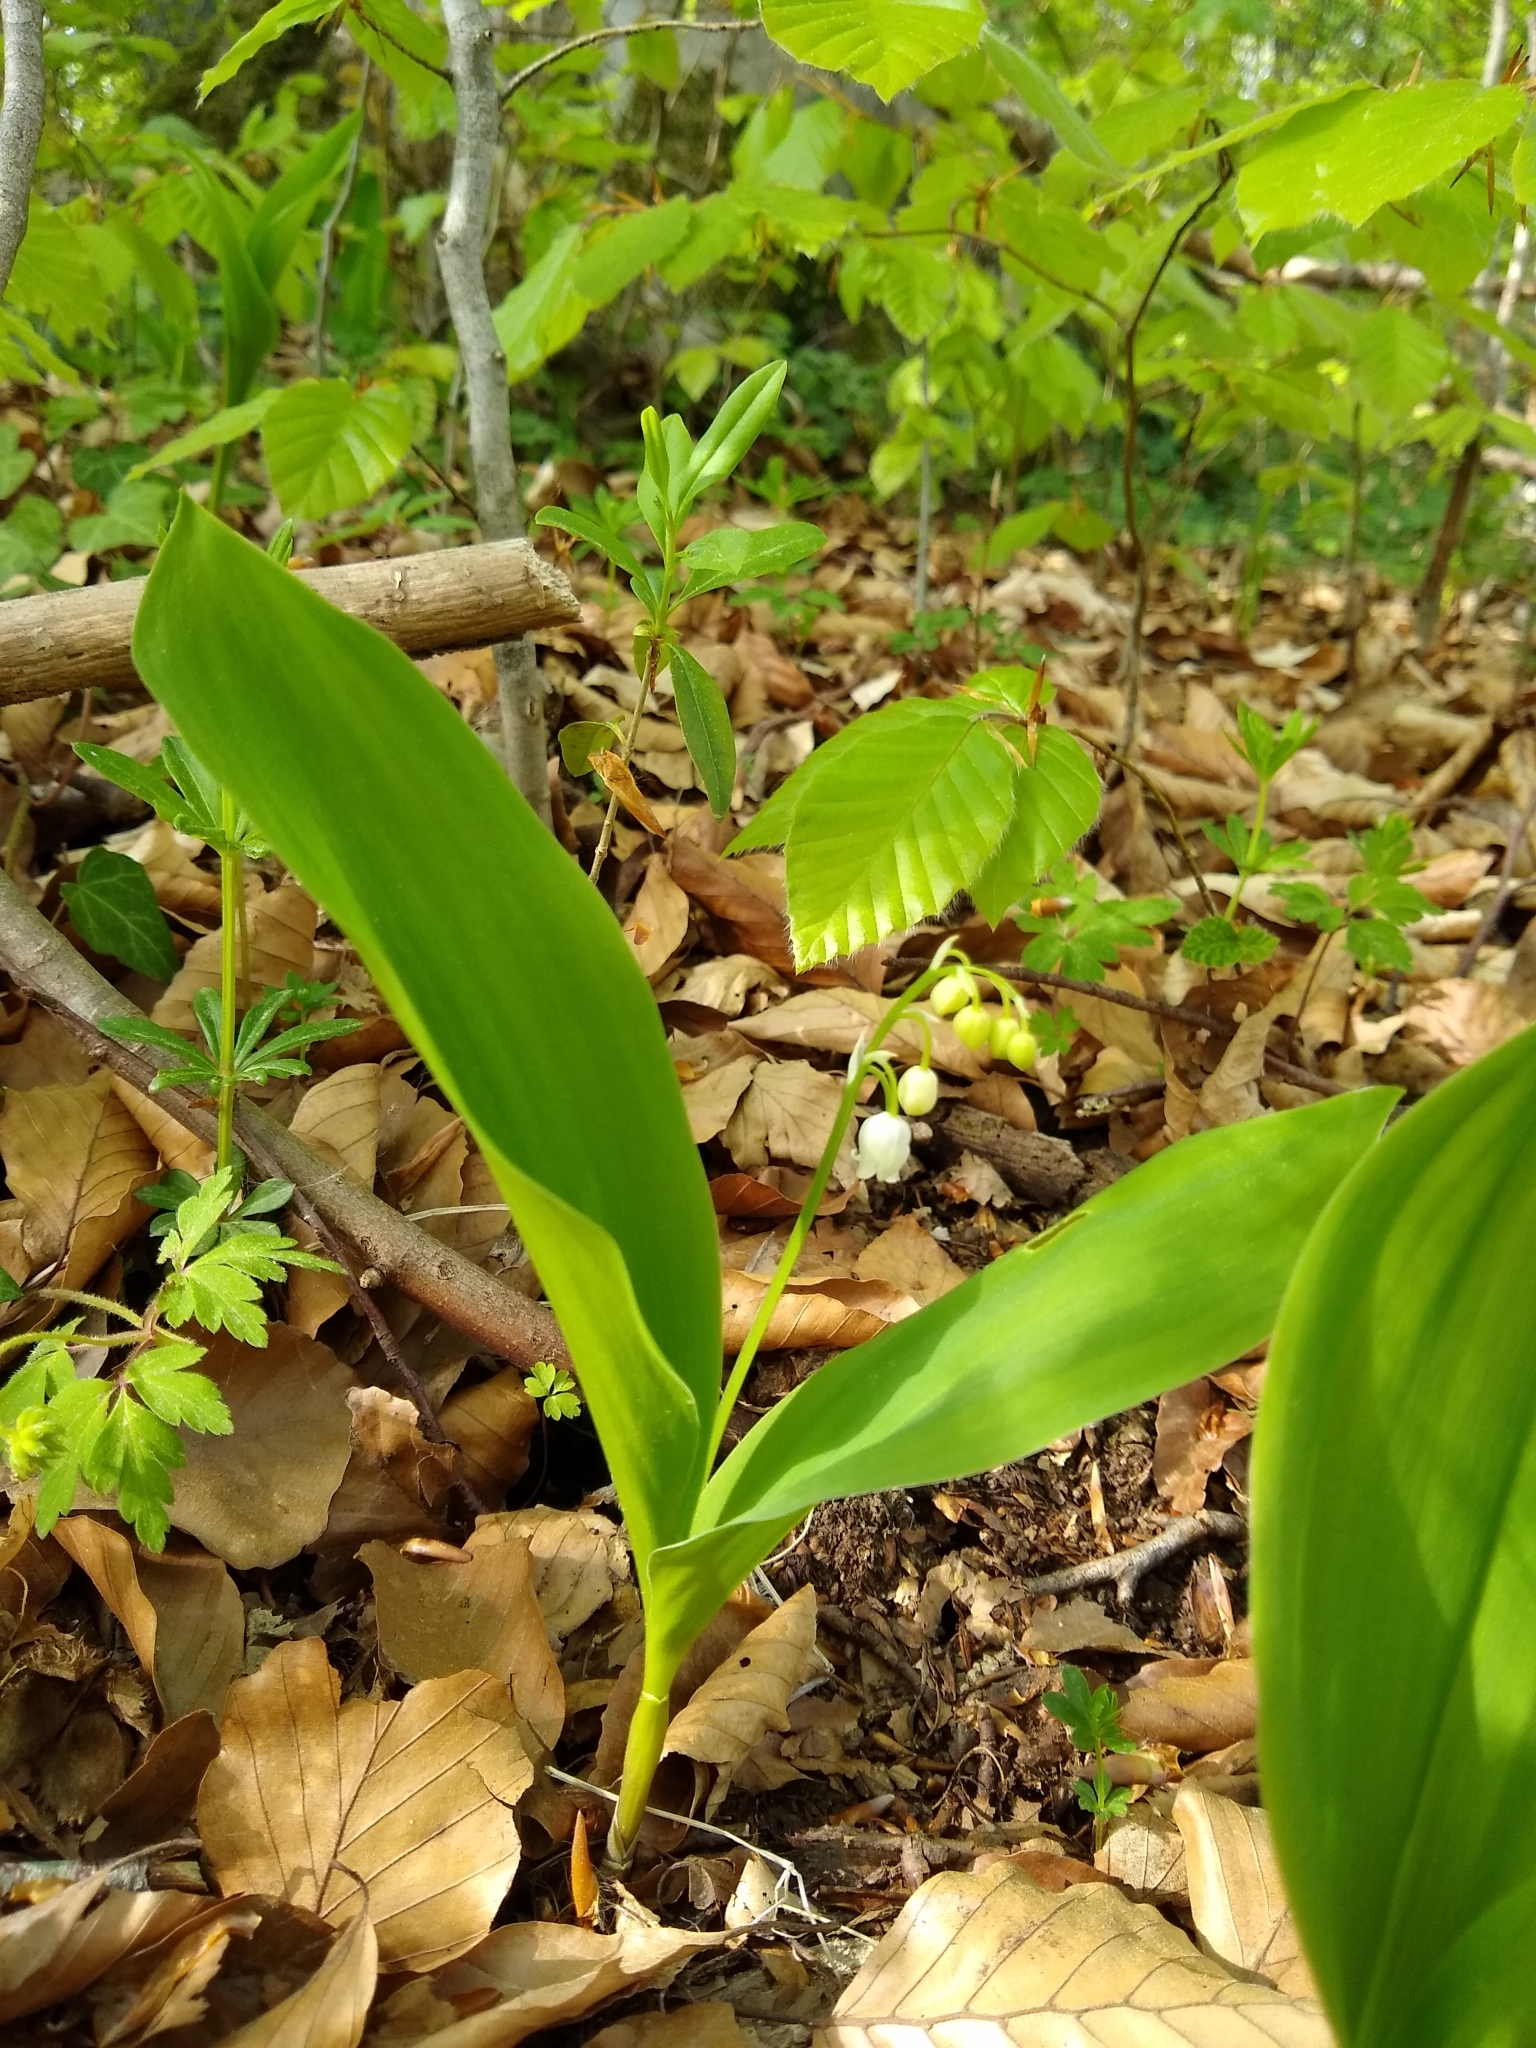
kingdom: Plantae
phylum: Tracheophyta
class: Liliopsida
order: Asparagales
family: Asparagaceae
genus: Convallaria
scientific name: Convallaria majalis
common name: Lily-of-the-valley
